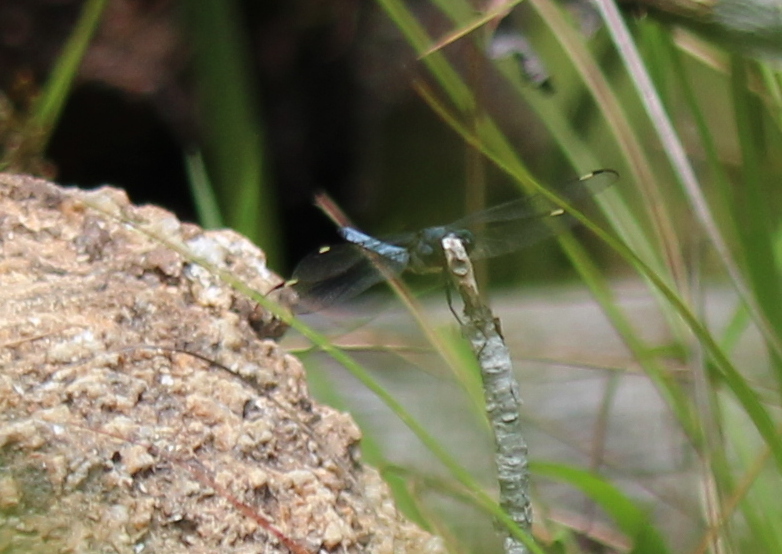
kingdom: Animalia
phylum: Arthropoda
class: Insecta
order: Odonata
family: Libellulidae
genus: Libellula
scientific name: Libellula cyanea
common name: Spangled skimmer
